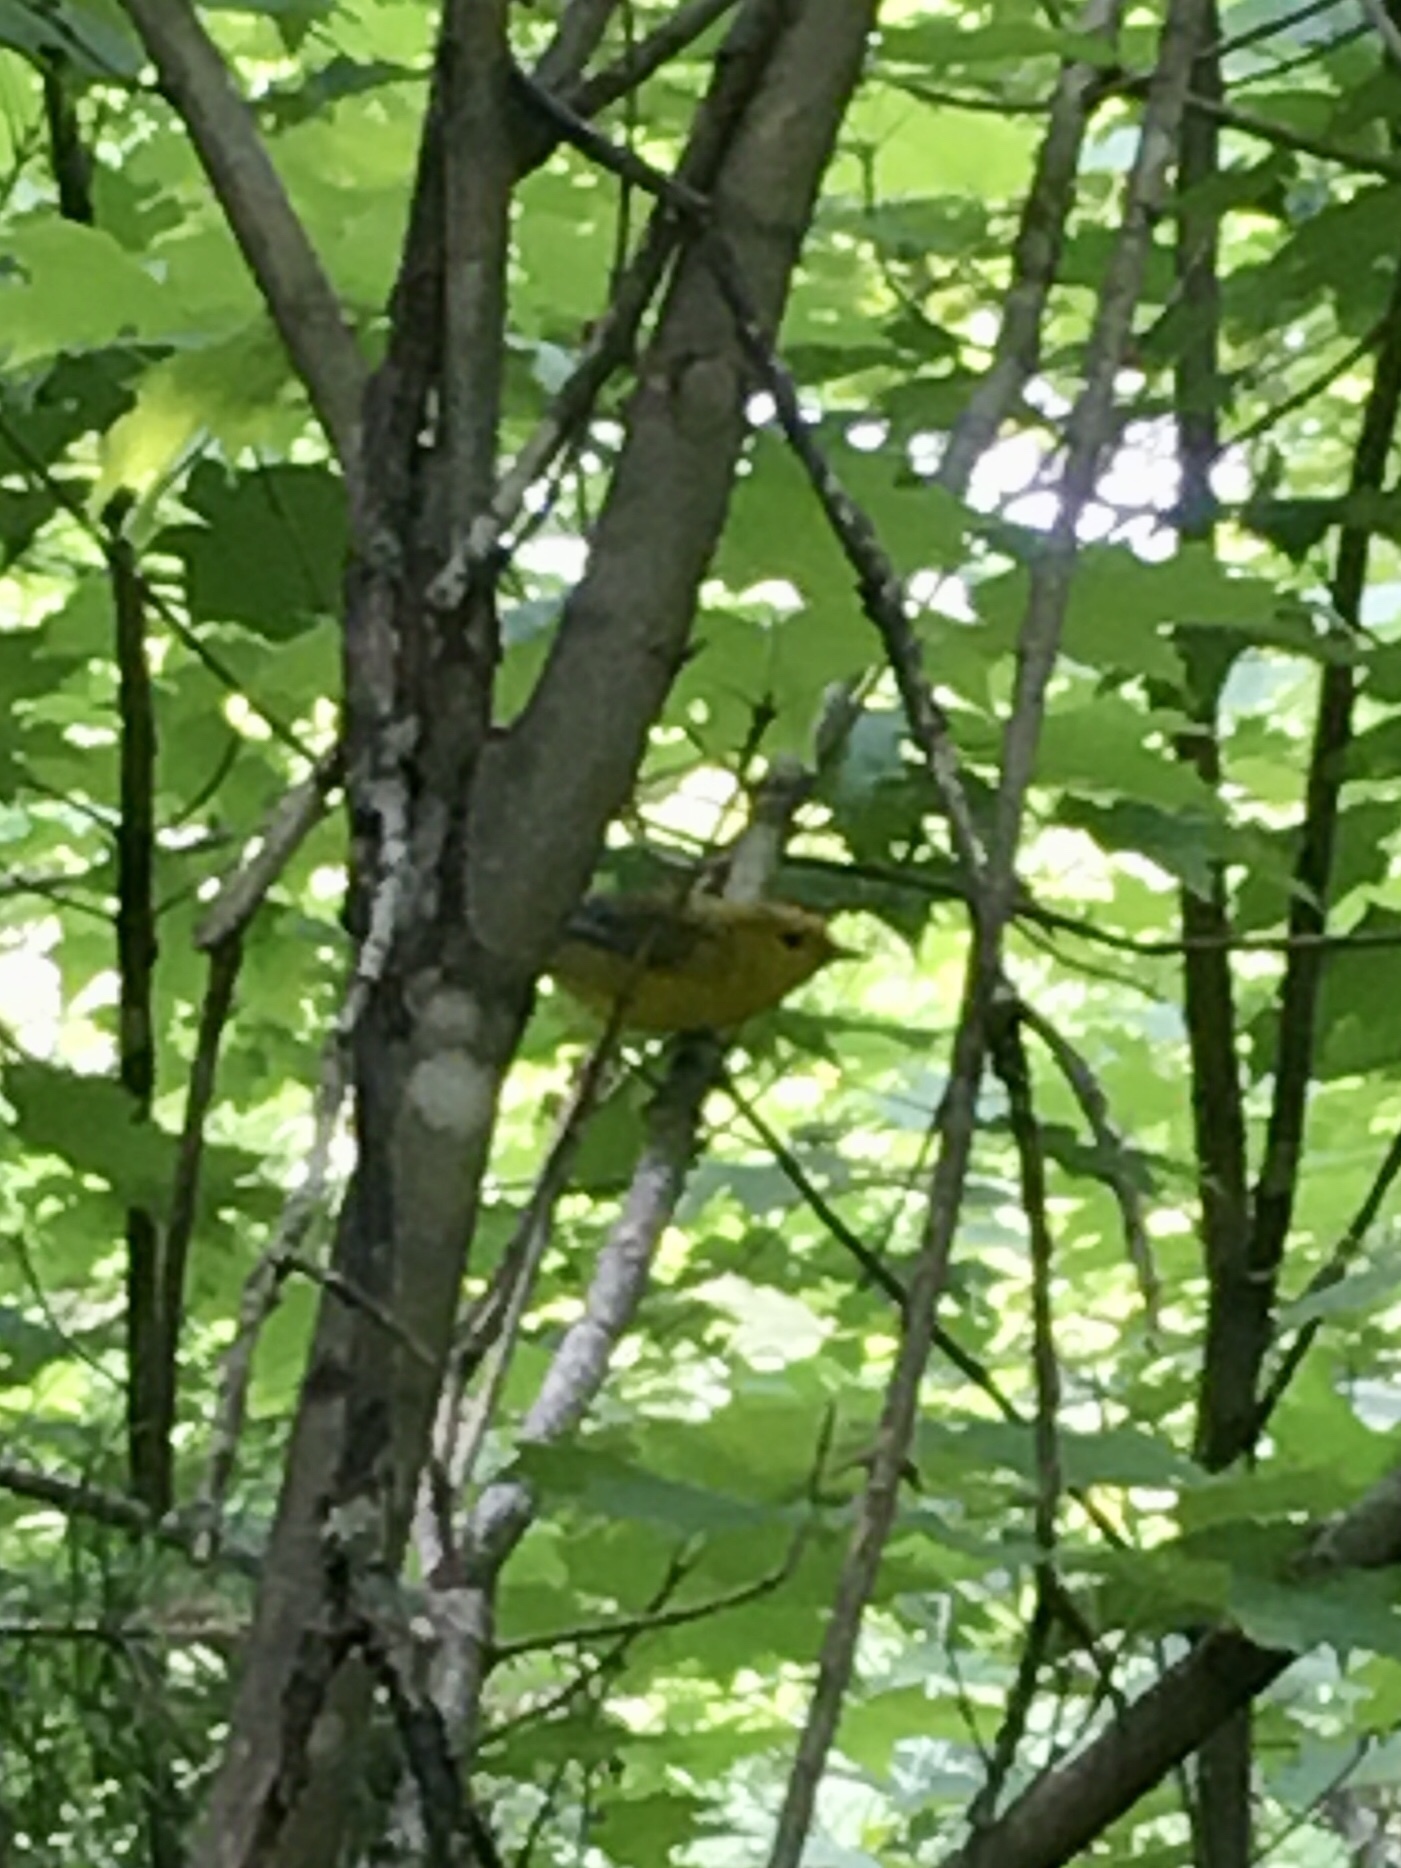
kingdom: Animalia
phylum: Chordata
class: Aves
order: Passeriformes
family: Parulidae
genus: Protonotaria
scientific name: Protonotaria citrea
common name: Prothonotary warbler
